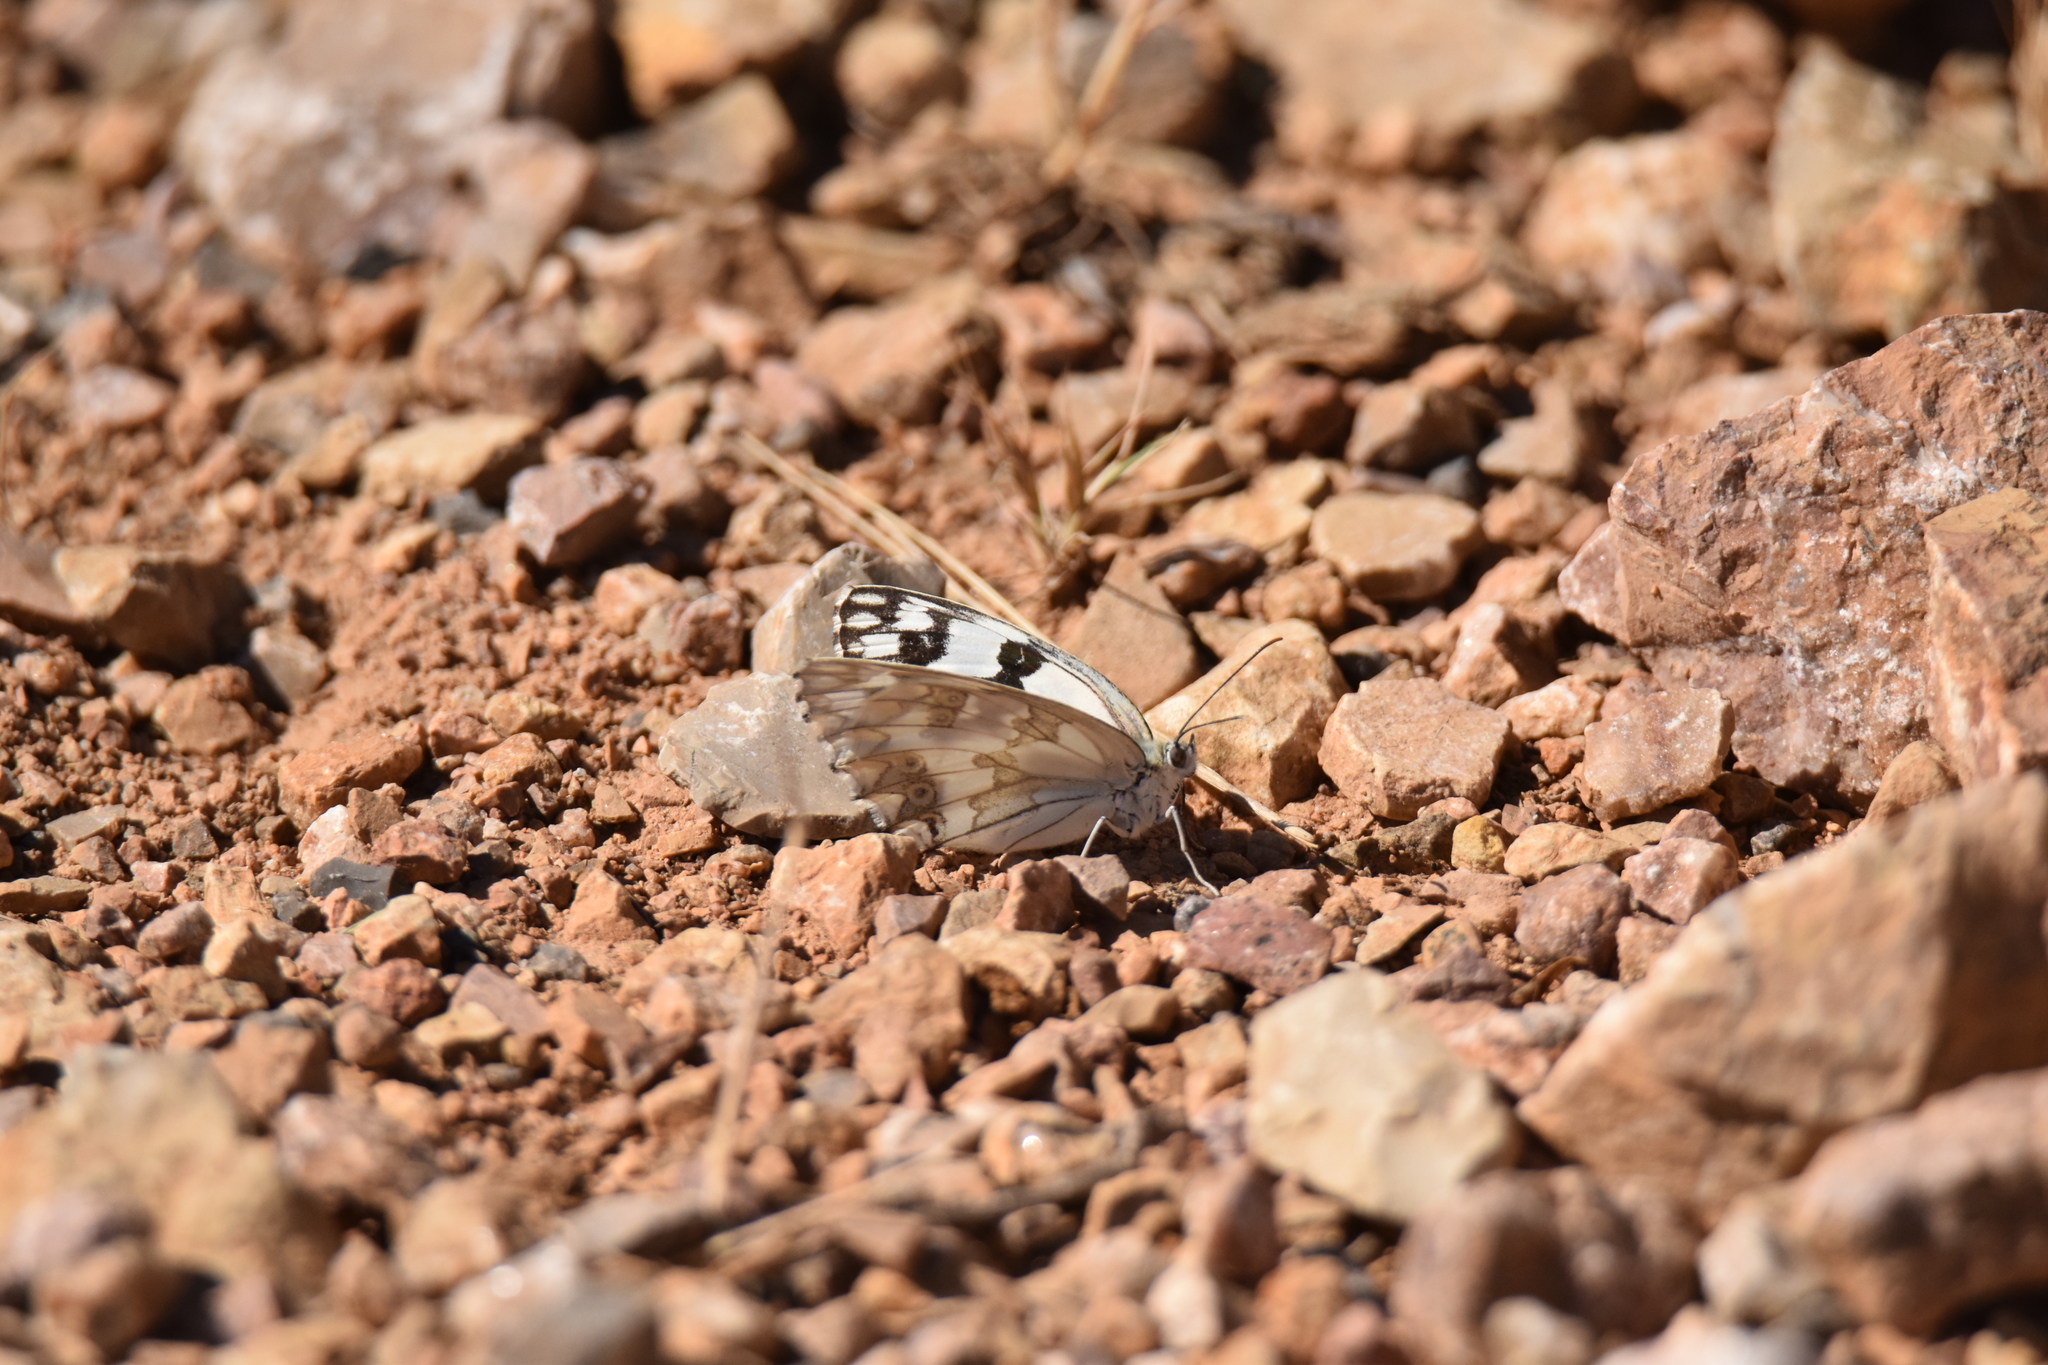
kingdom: Animalia
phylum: Arthropoda
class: Insecta
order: Lepidoptera
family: Nymphalidae
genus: Melanargia
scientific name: Melanargia lachesis
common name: Iberian marbled white
